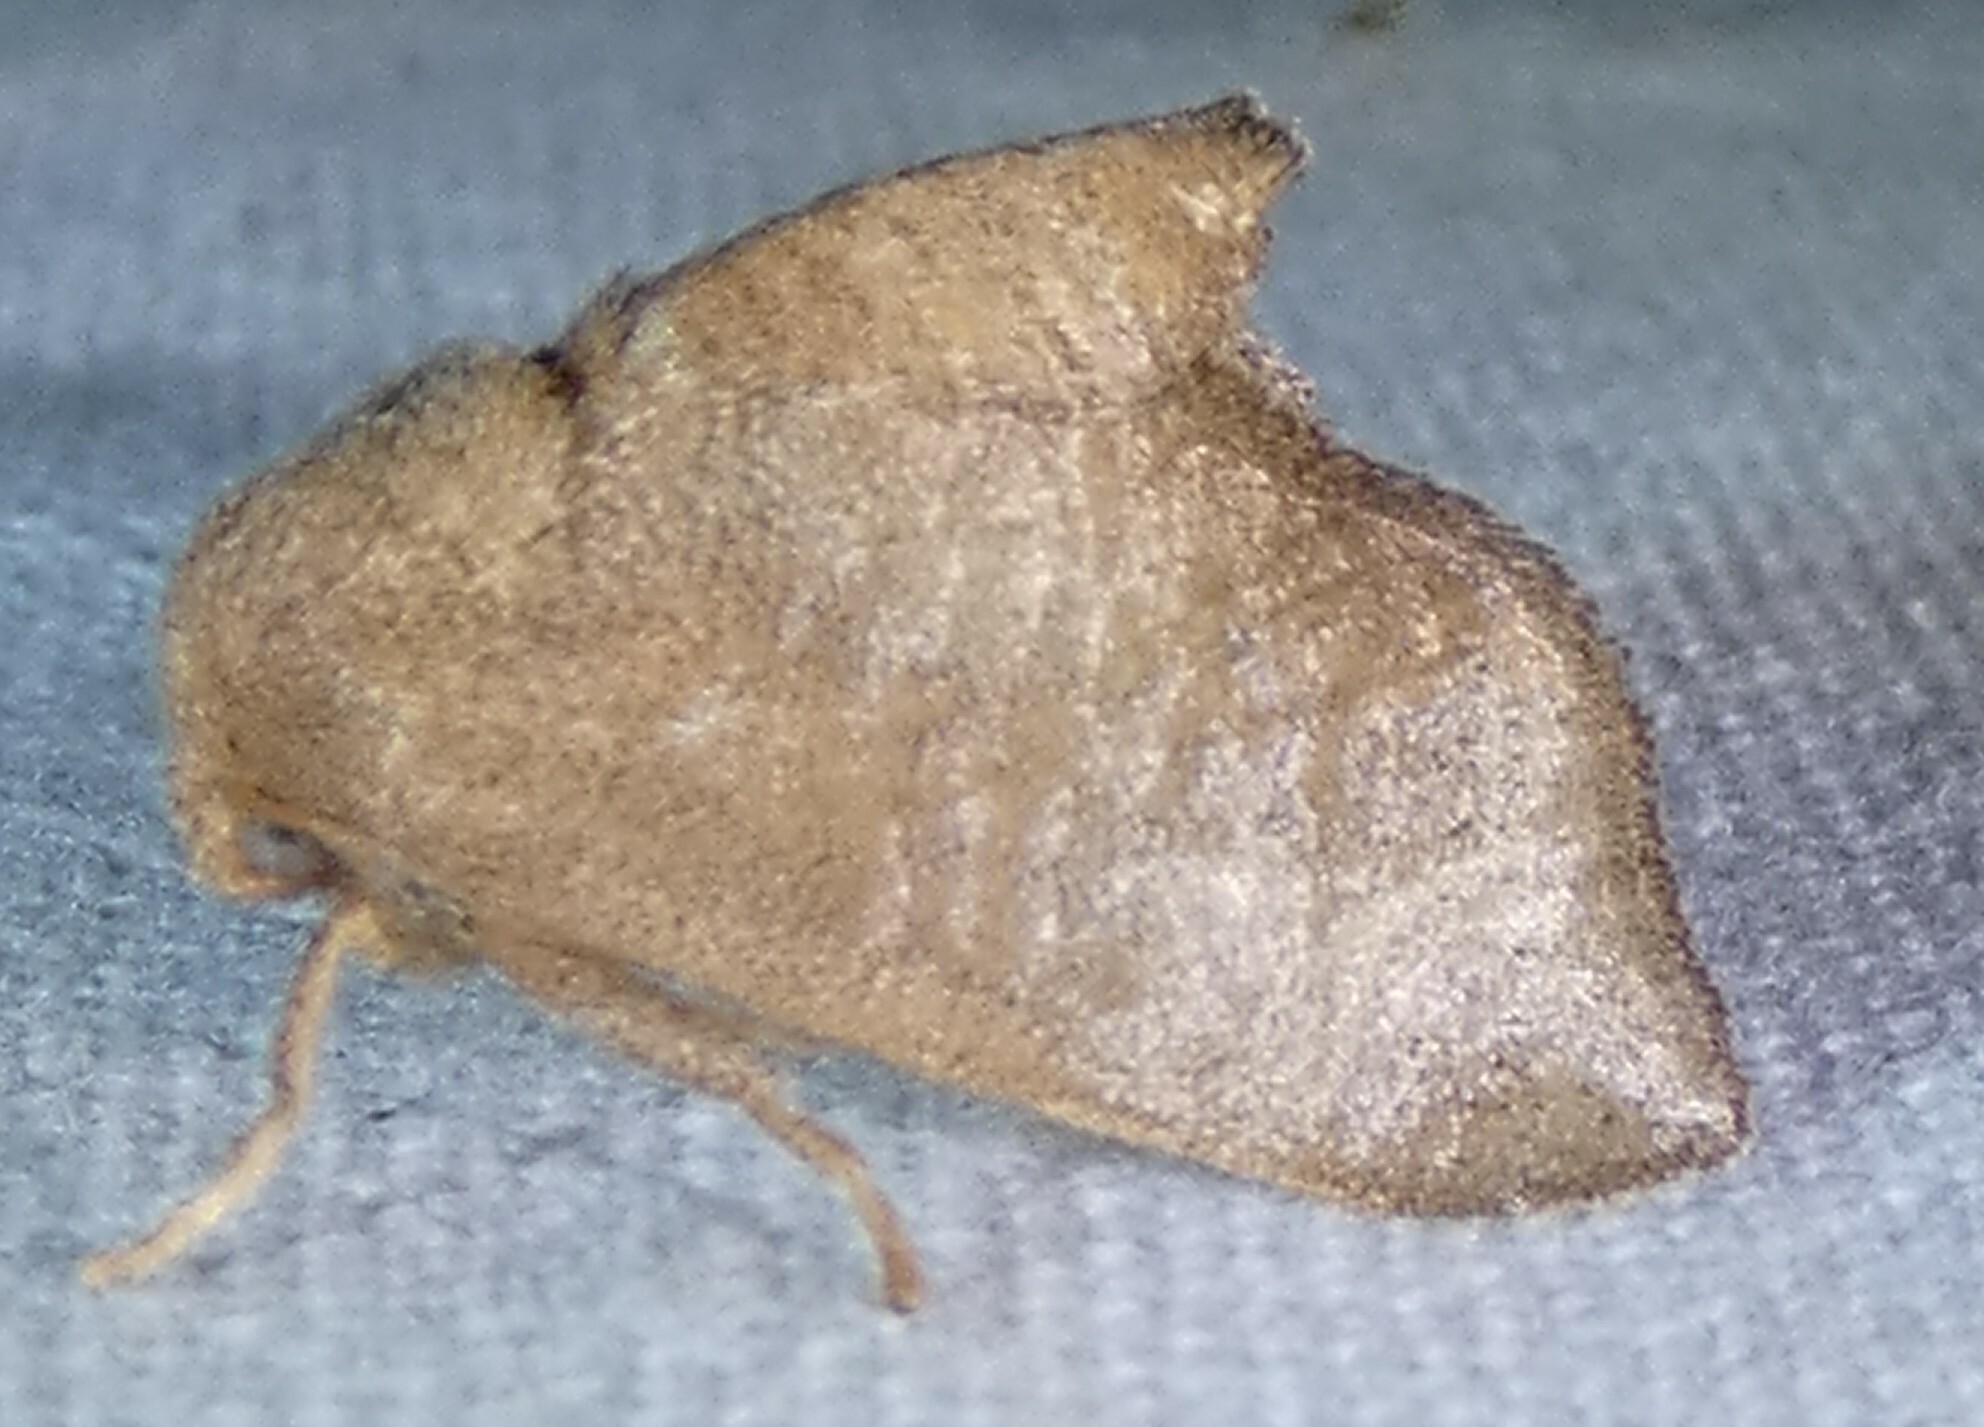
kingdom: Animalia
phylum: Arthropoda
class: Insecta
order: Lepidoptera
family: Limacodidae
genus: Isa
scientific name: Isa textula
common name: Crowned slug moth
